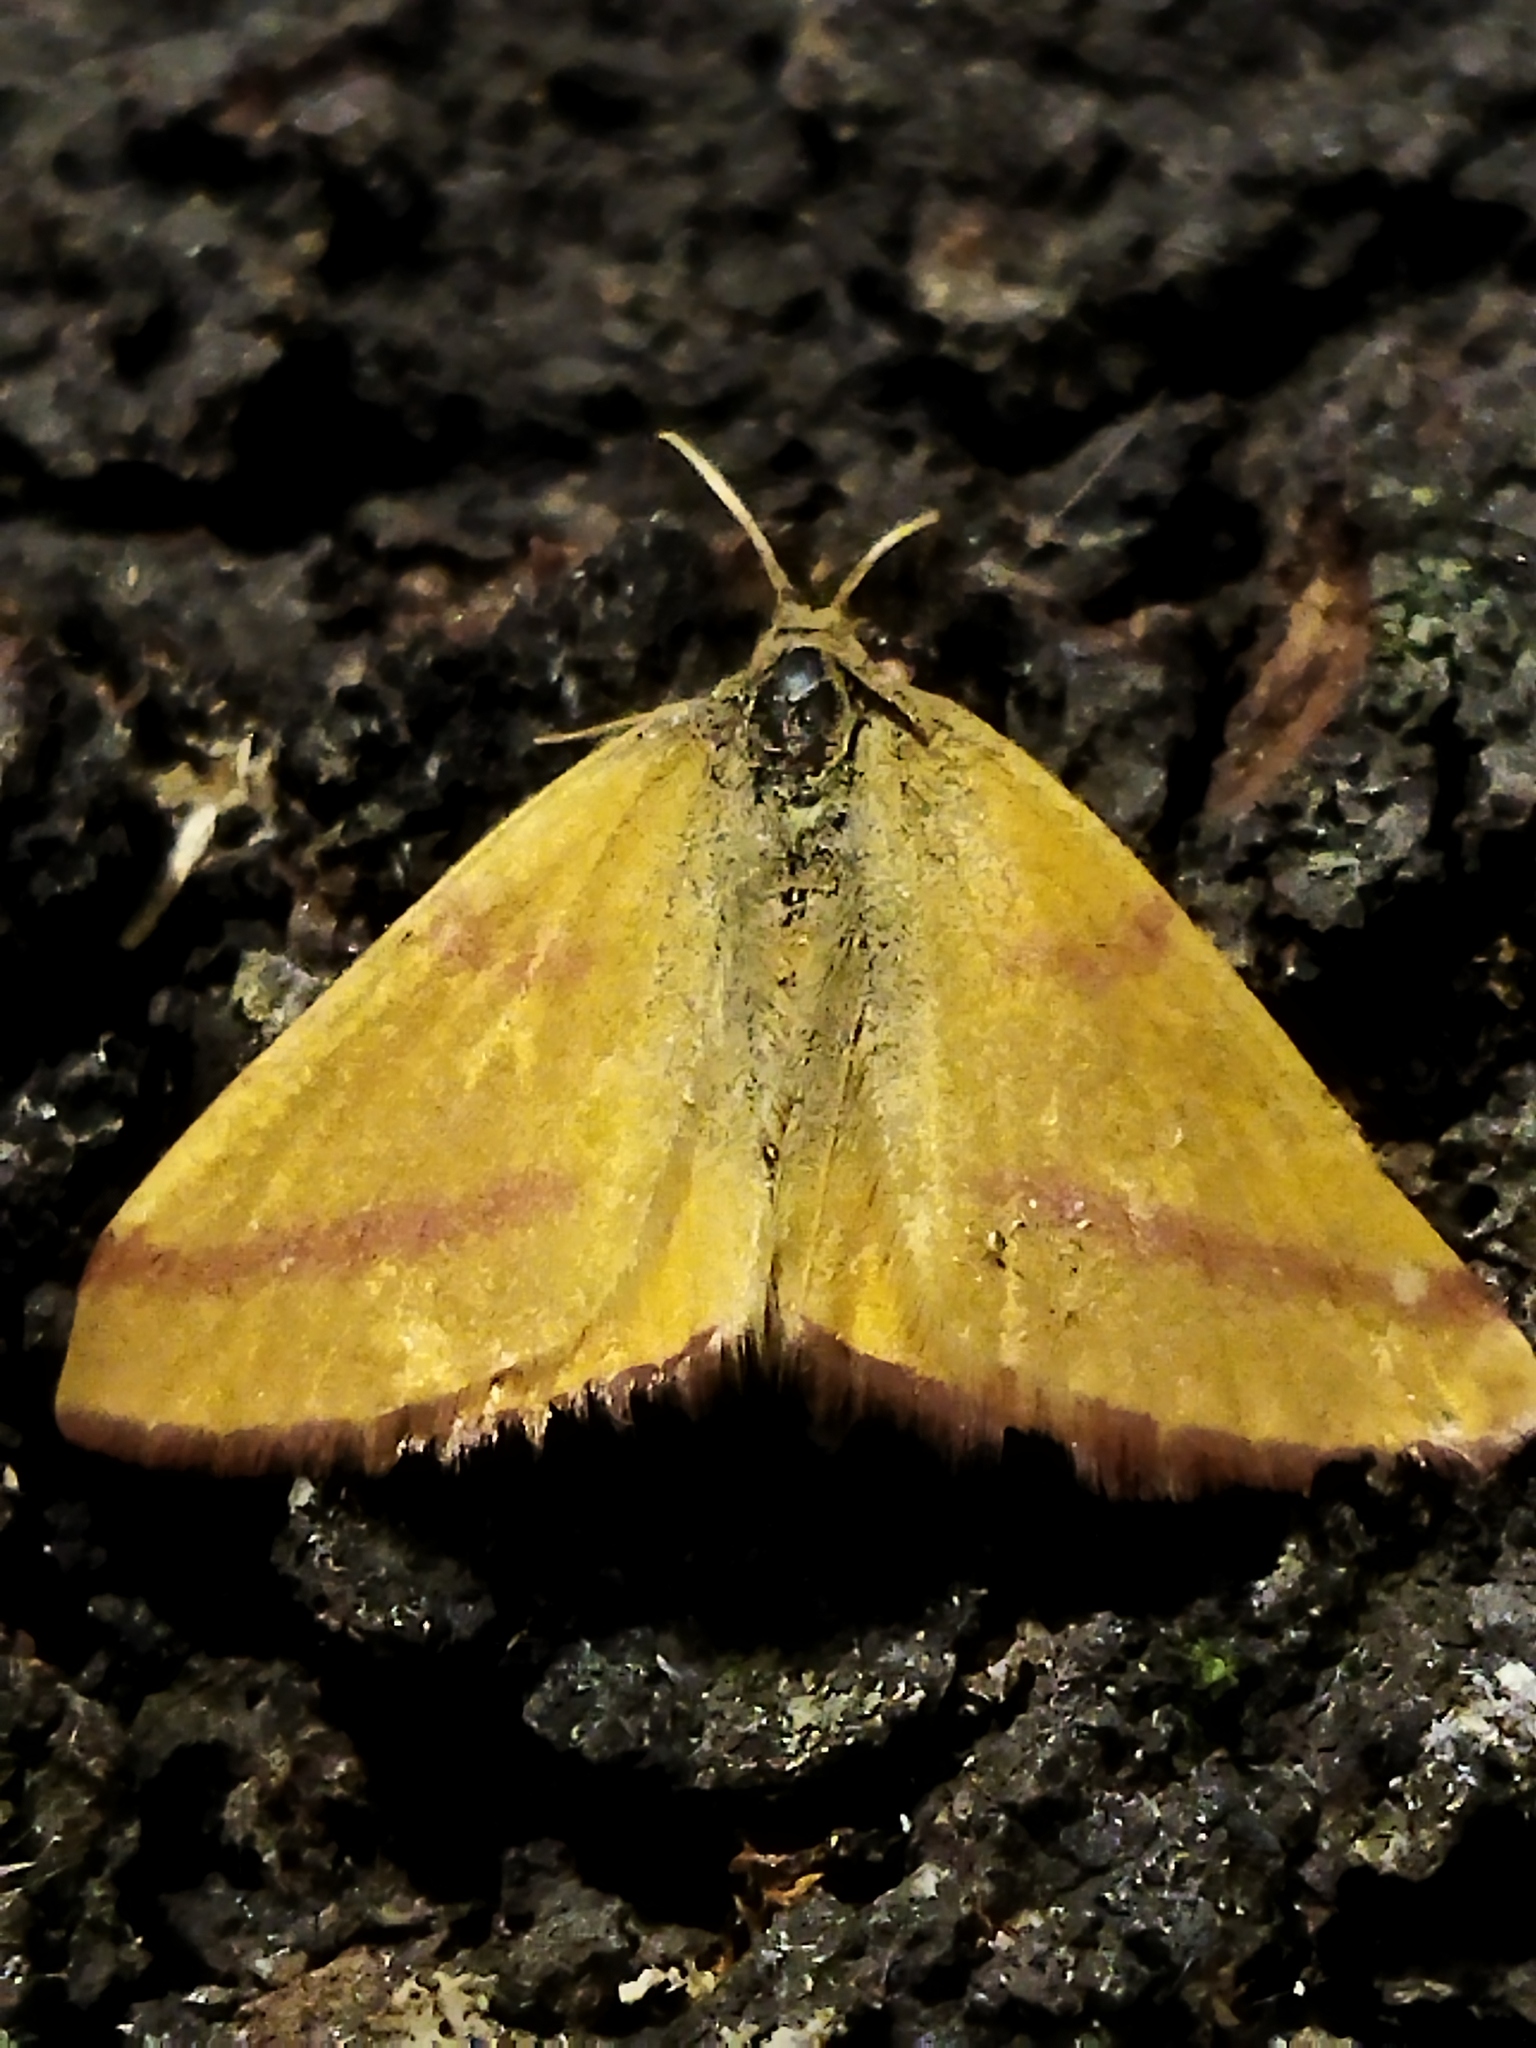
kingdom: Animalia
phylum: Arthropoda
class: Insecta
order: Lepidoptera
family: Geometridae
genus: Lythria
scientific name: Lythria purpuraria
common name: Purple-barred yellow
